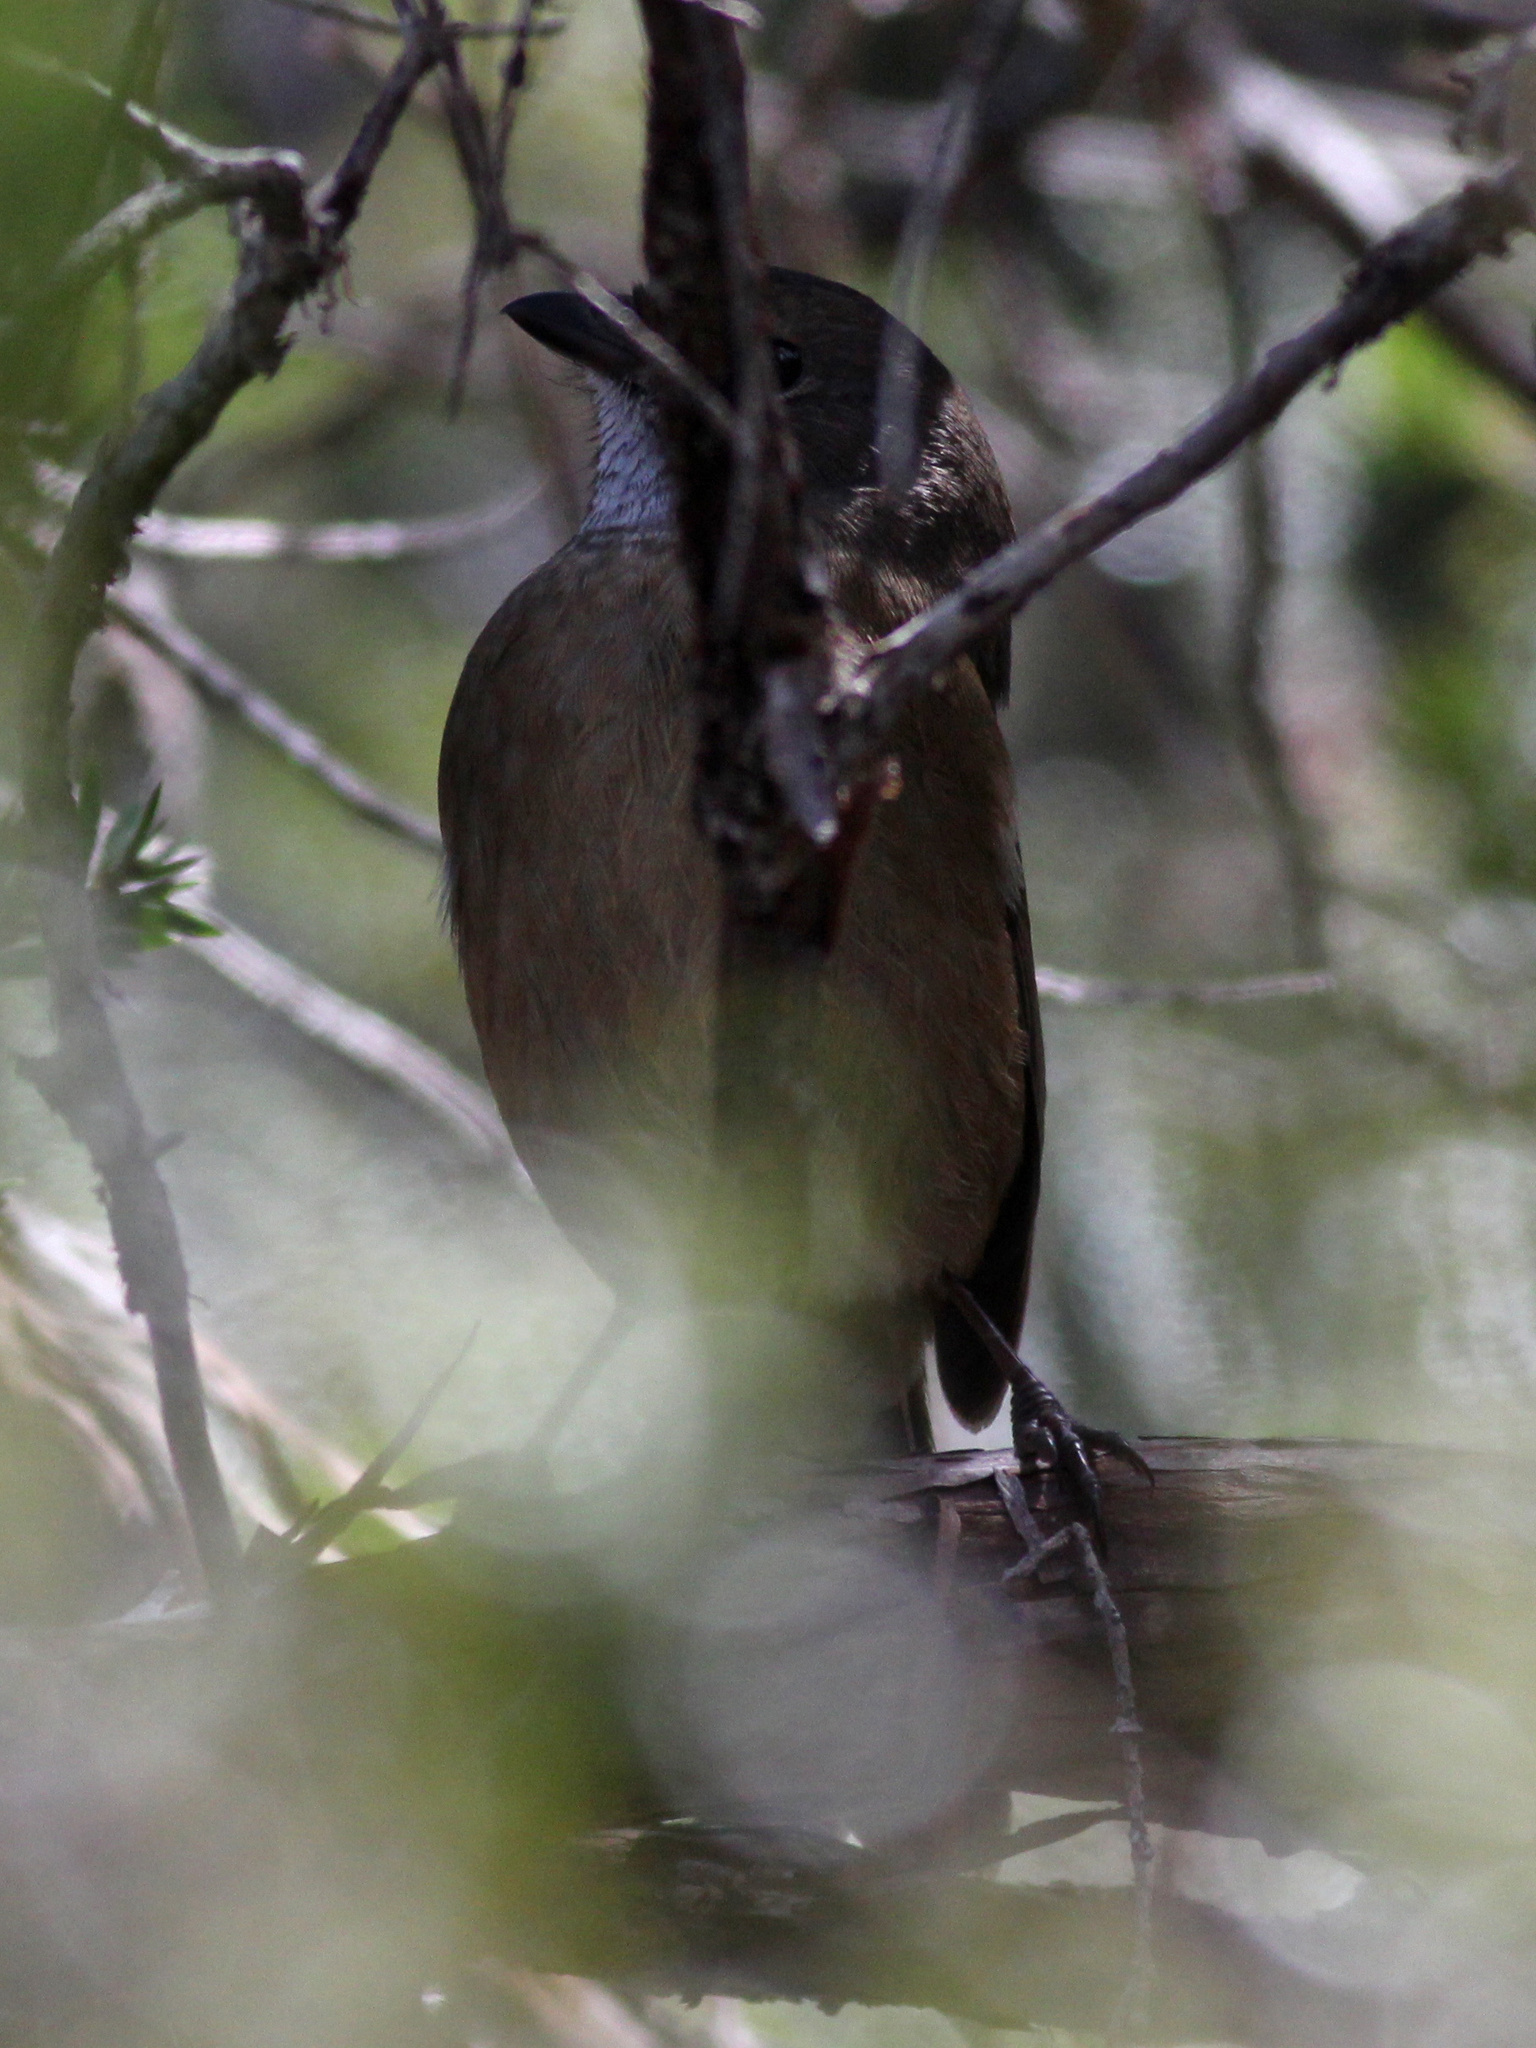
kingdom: Animalia
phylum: Chordata
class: Aves
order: Passeriformes
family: Pachycephalidae
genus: Pachycephala
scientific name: Pachycephala olivacea
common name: Olive whistler
